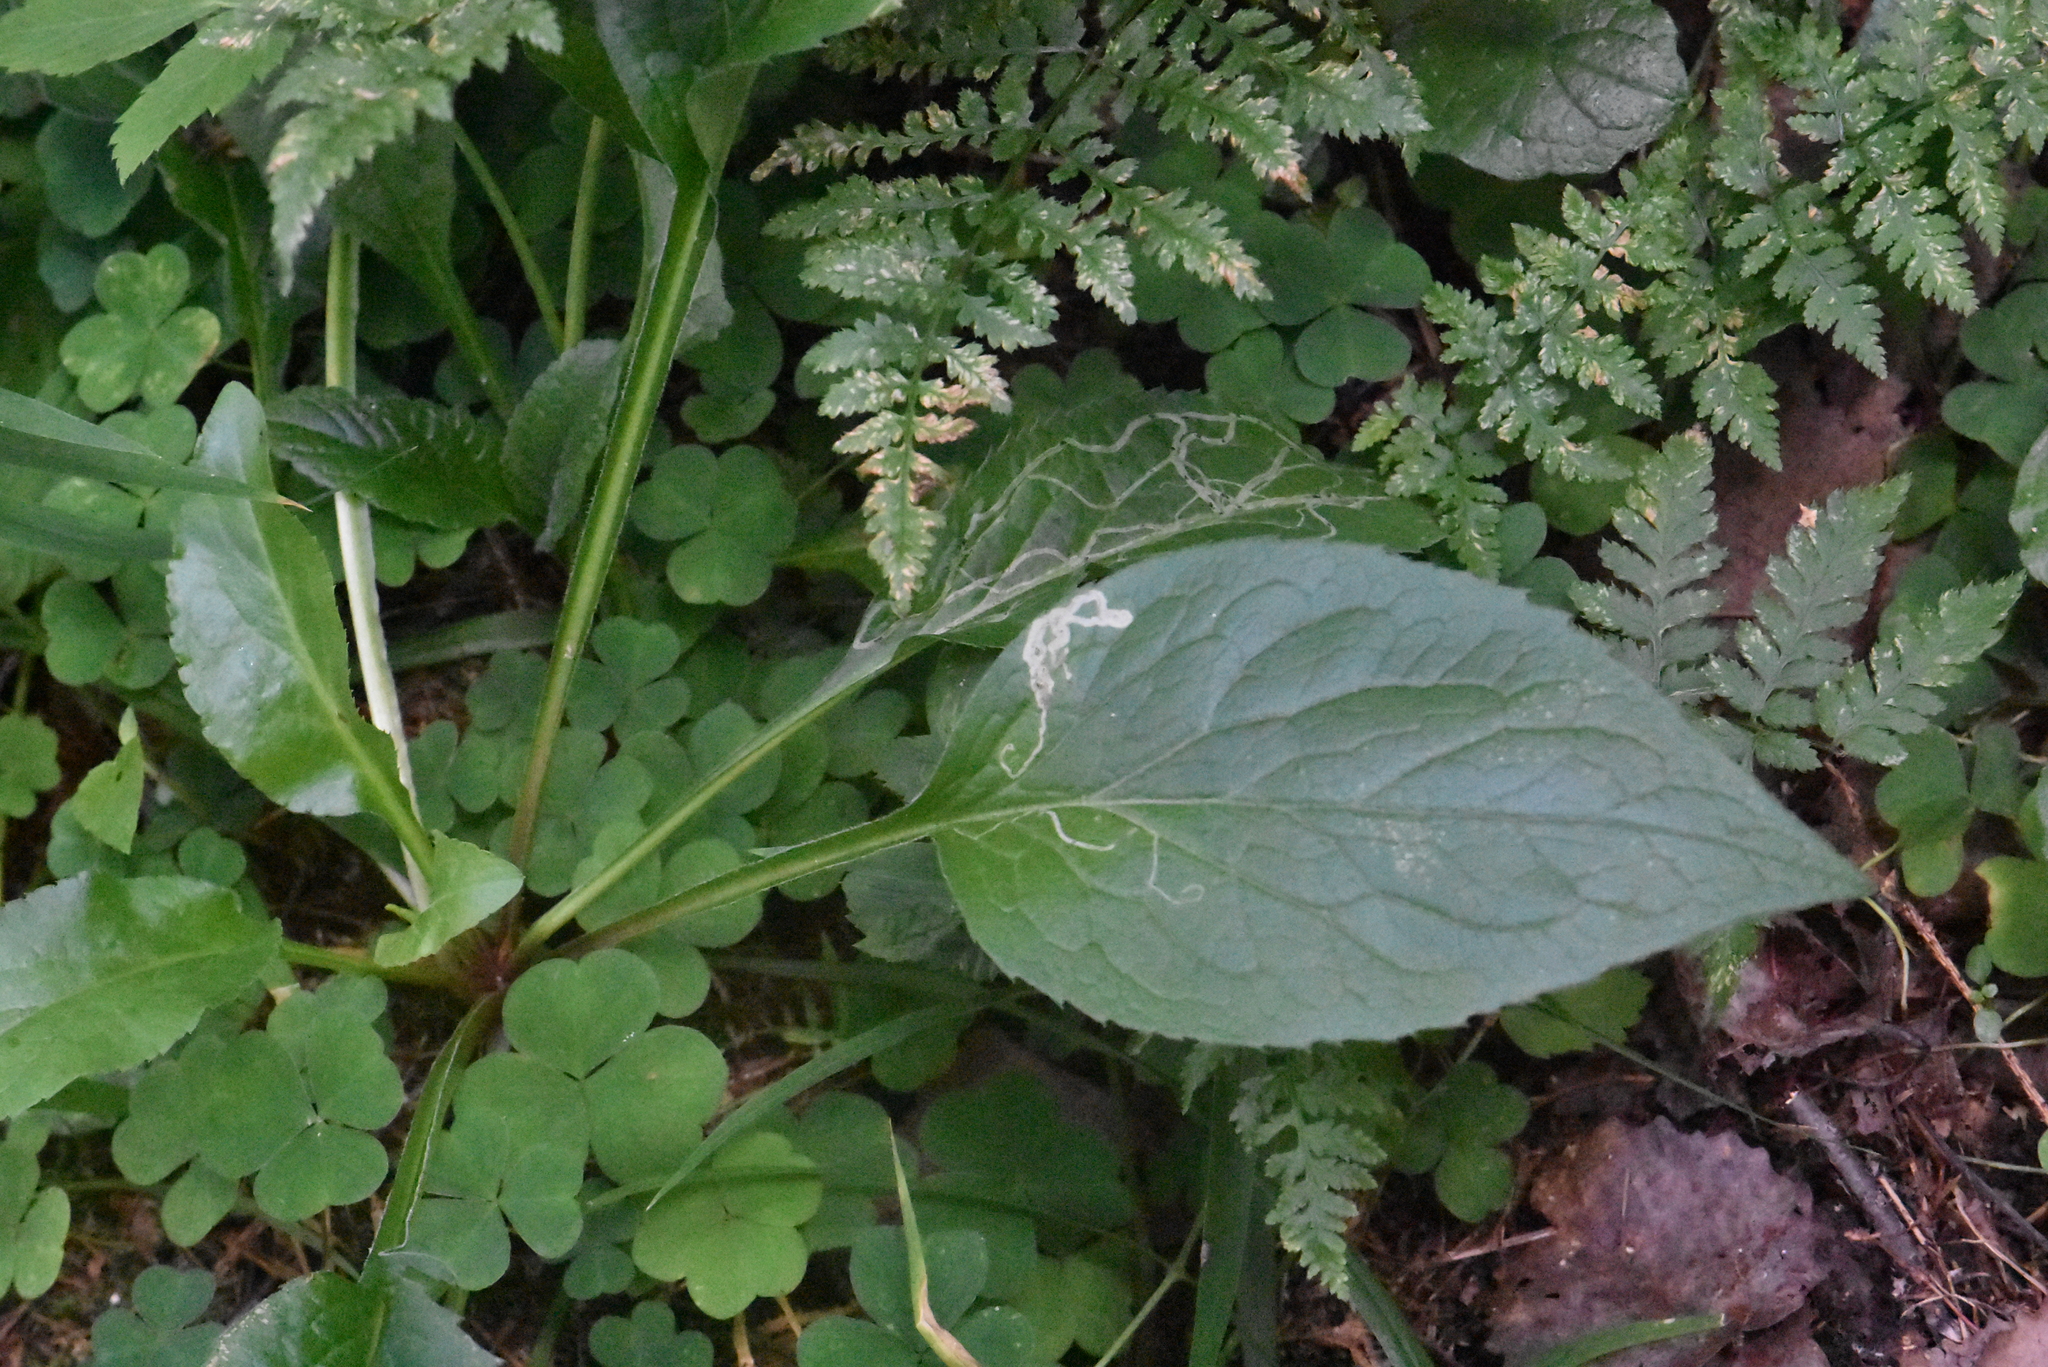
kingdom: Plantae
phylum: Tracheophyta
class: Magnoliopsida
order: Asterales
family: Asteraceae
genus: Solidago
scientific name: Solidago virgaurea
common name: Goldenrod
